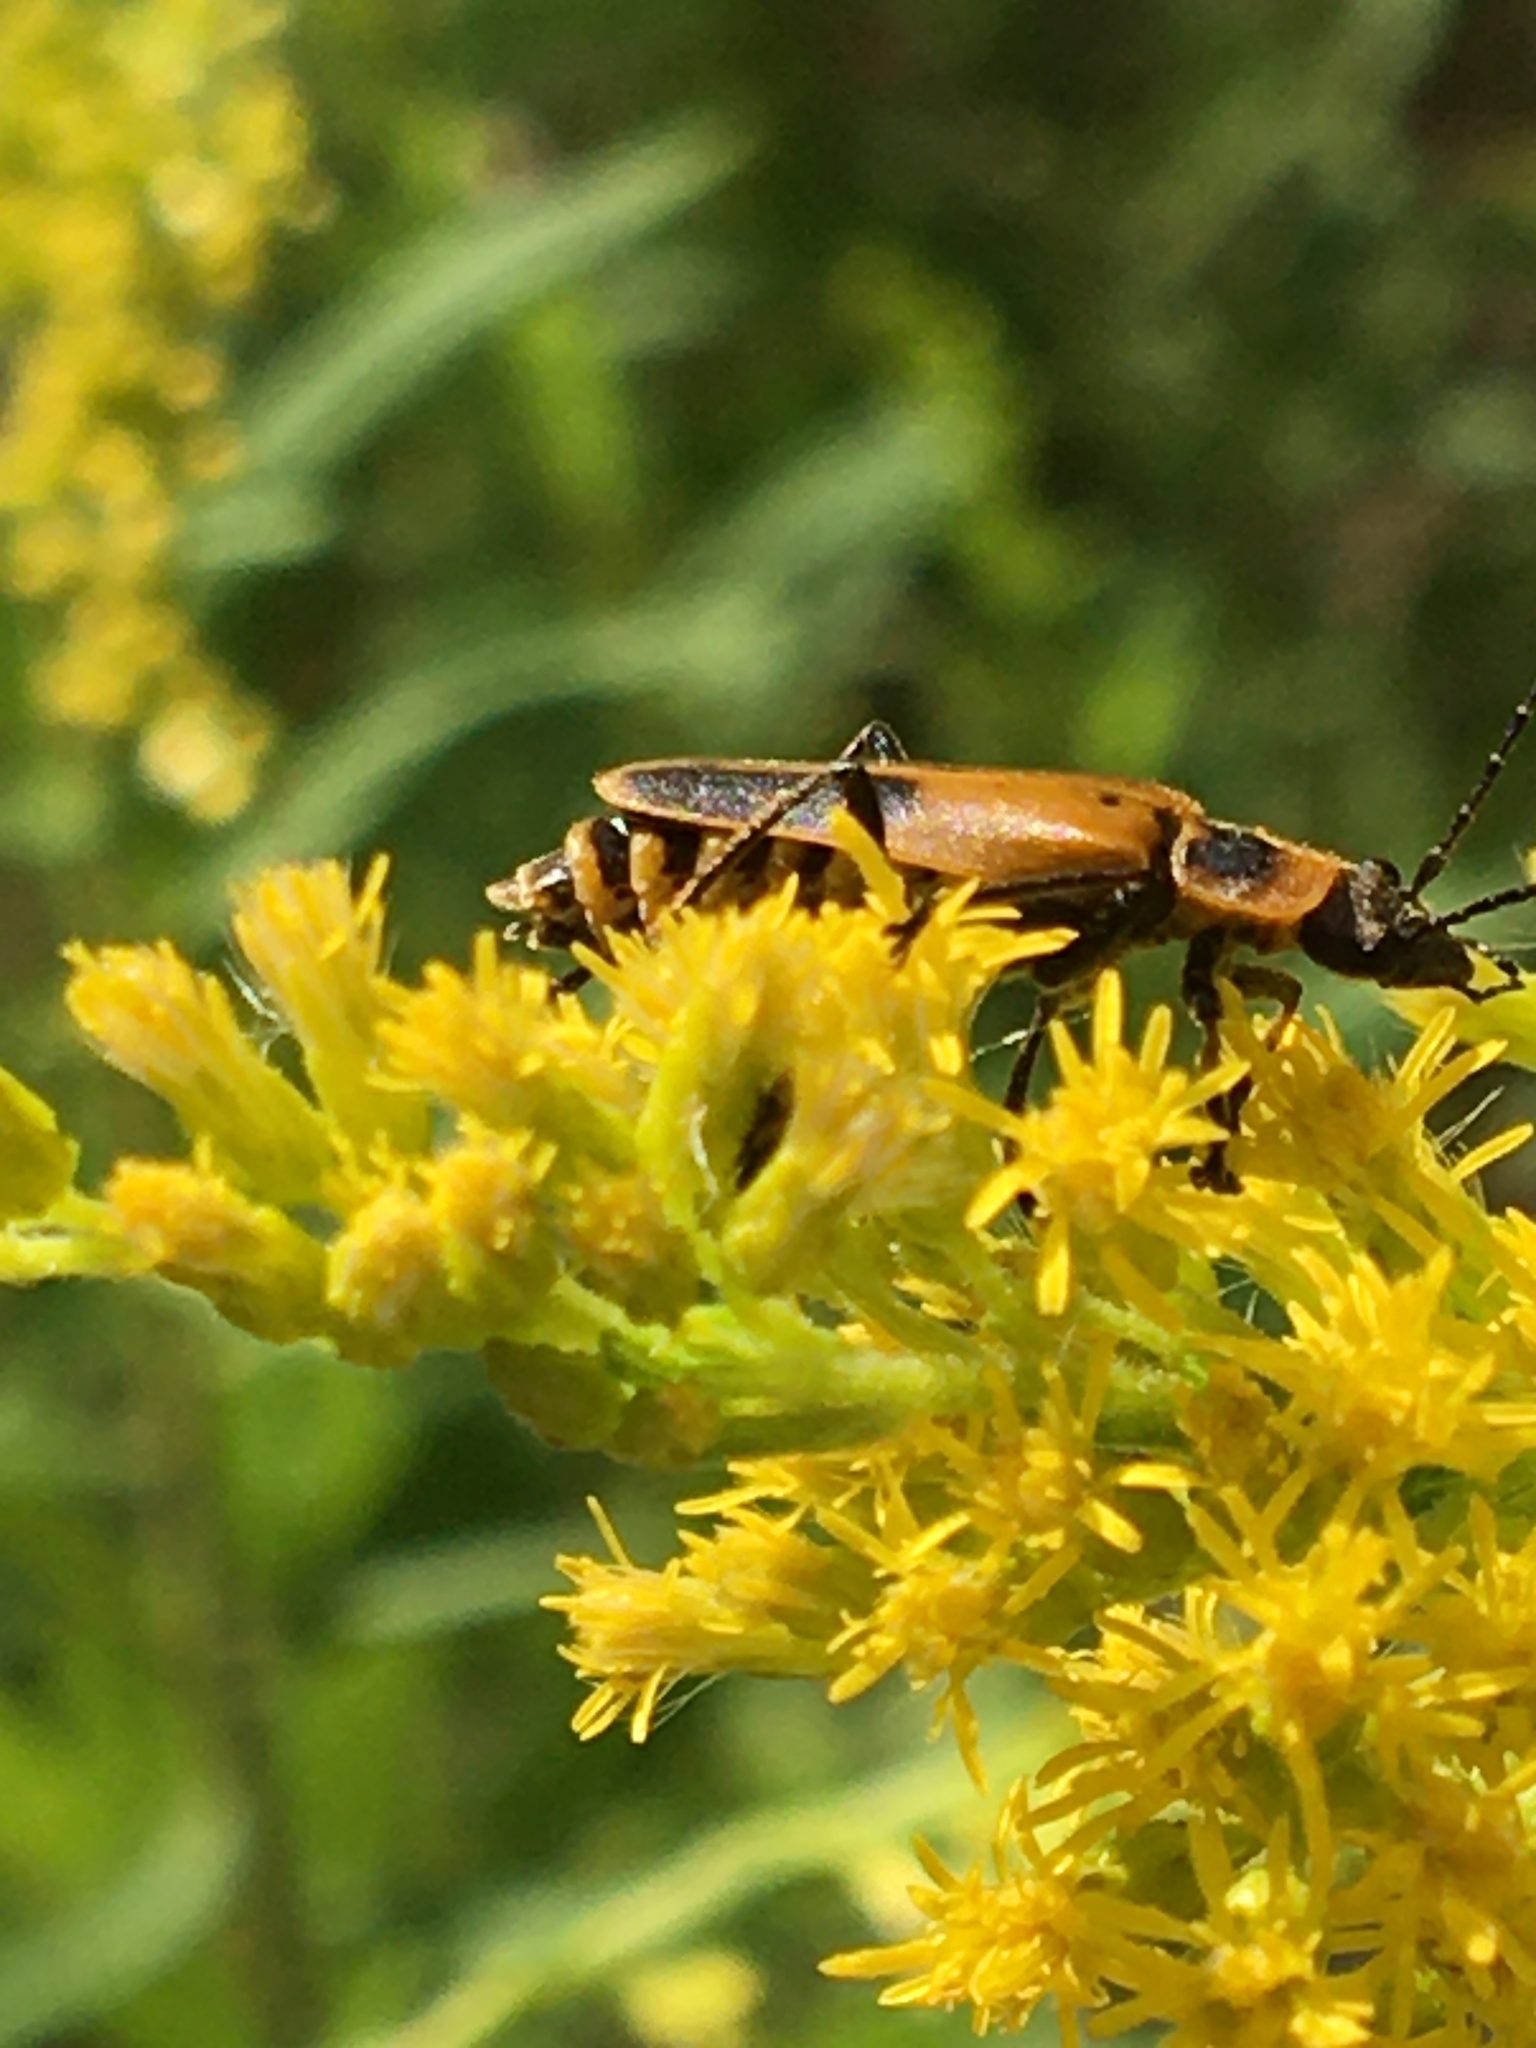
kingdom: Animalia
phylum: Arthropoda
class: Insecta
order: Coleoptera
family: Cantharidae
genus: Chauliognathus
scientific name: Chauliognathus pensylvanicus
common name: Goldenrod soldier beetle
